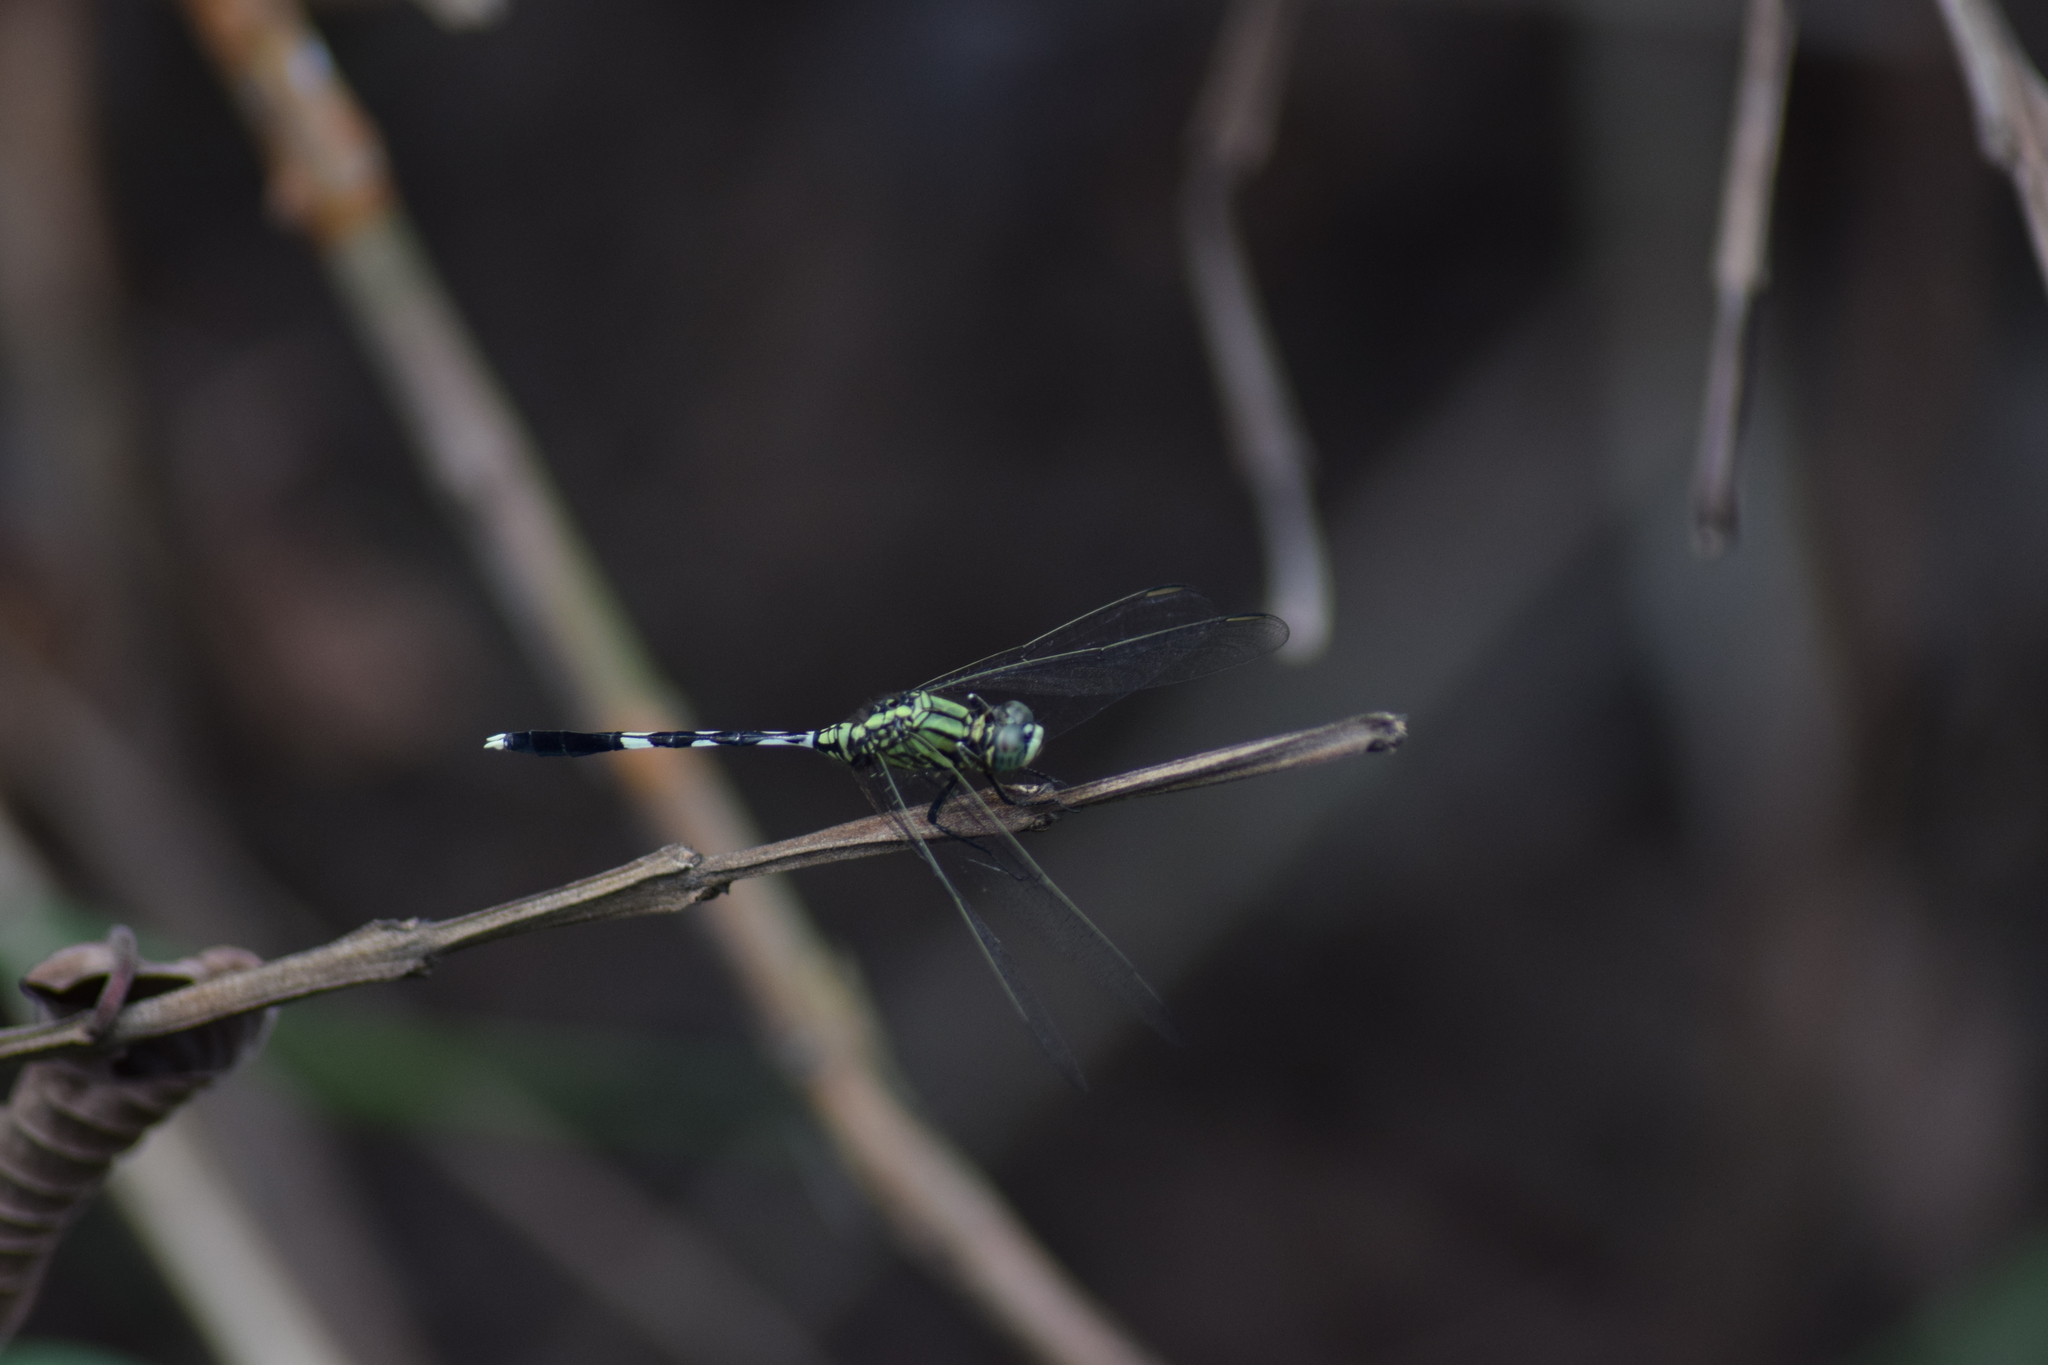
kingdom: Animalia
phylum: Arthropoda
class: Insecta
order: Odonata
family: Libellulidae
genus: Orthetrum
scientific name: Orthetrum sabina
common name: Slender skimmer
